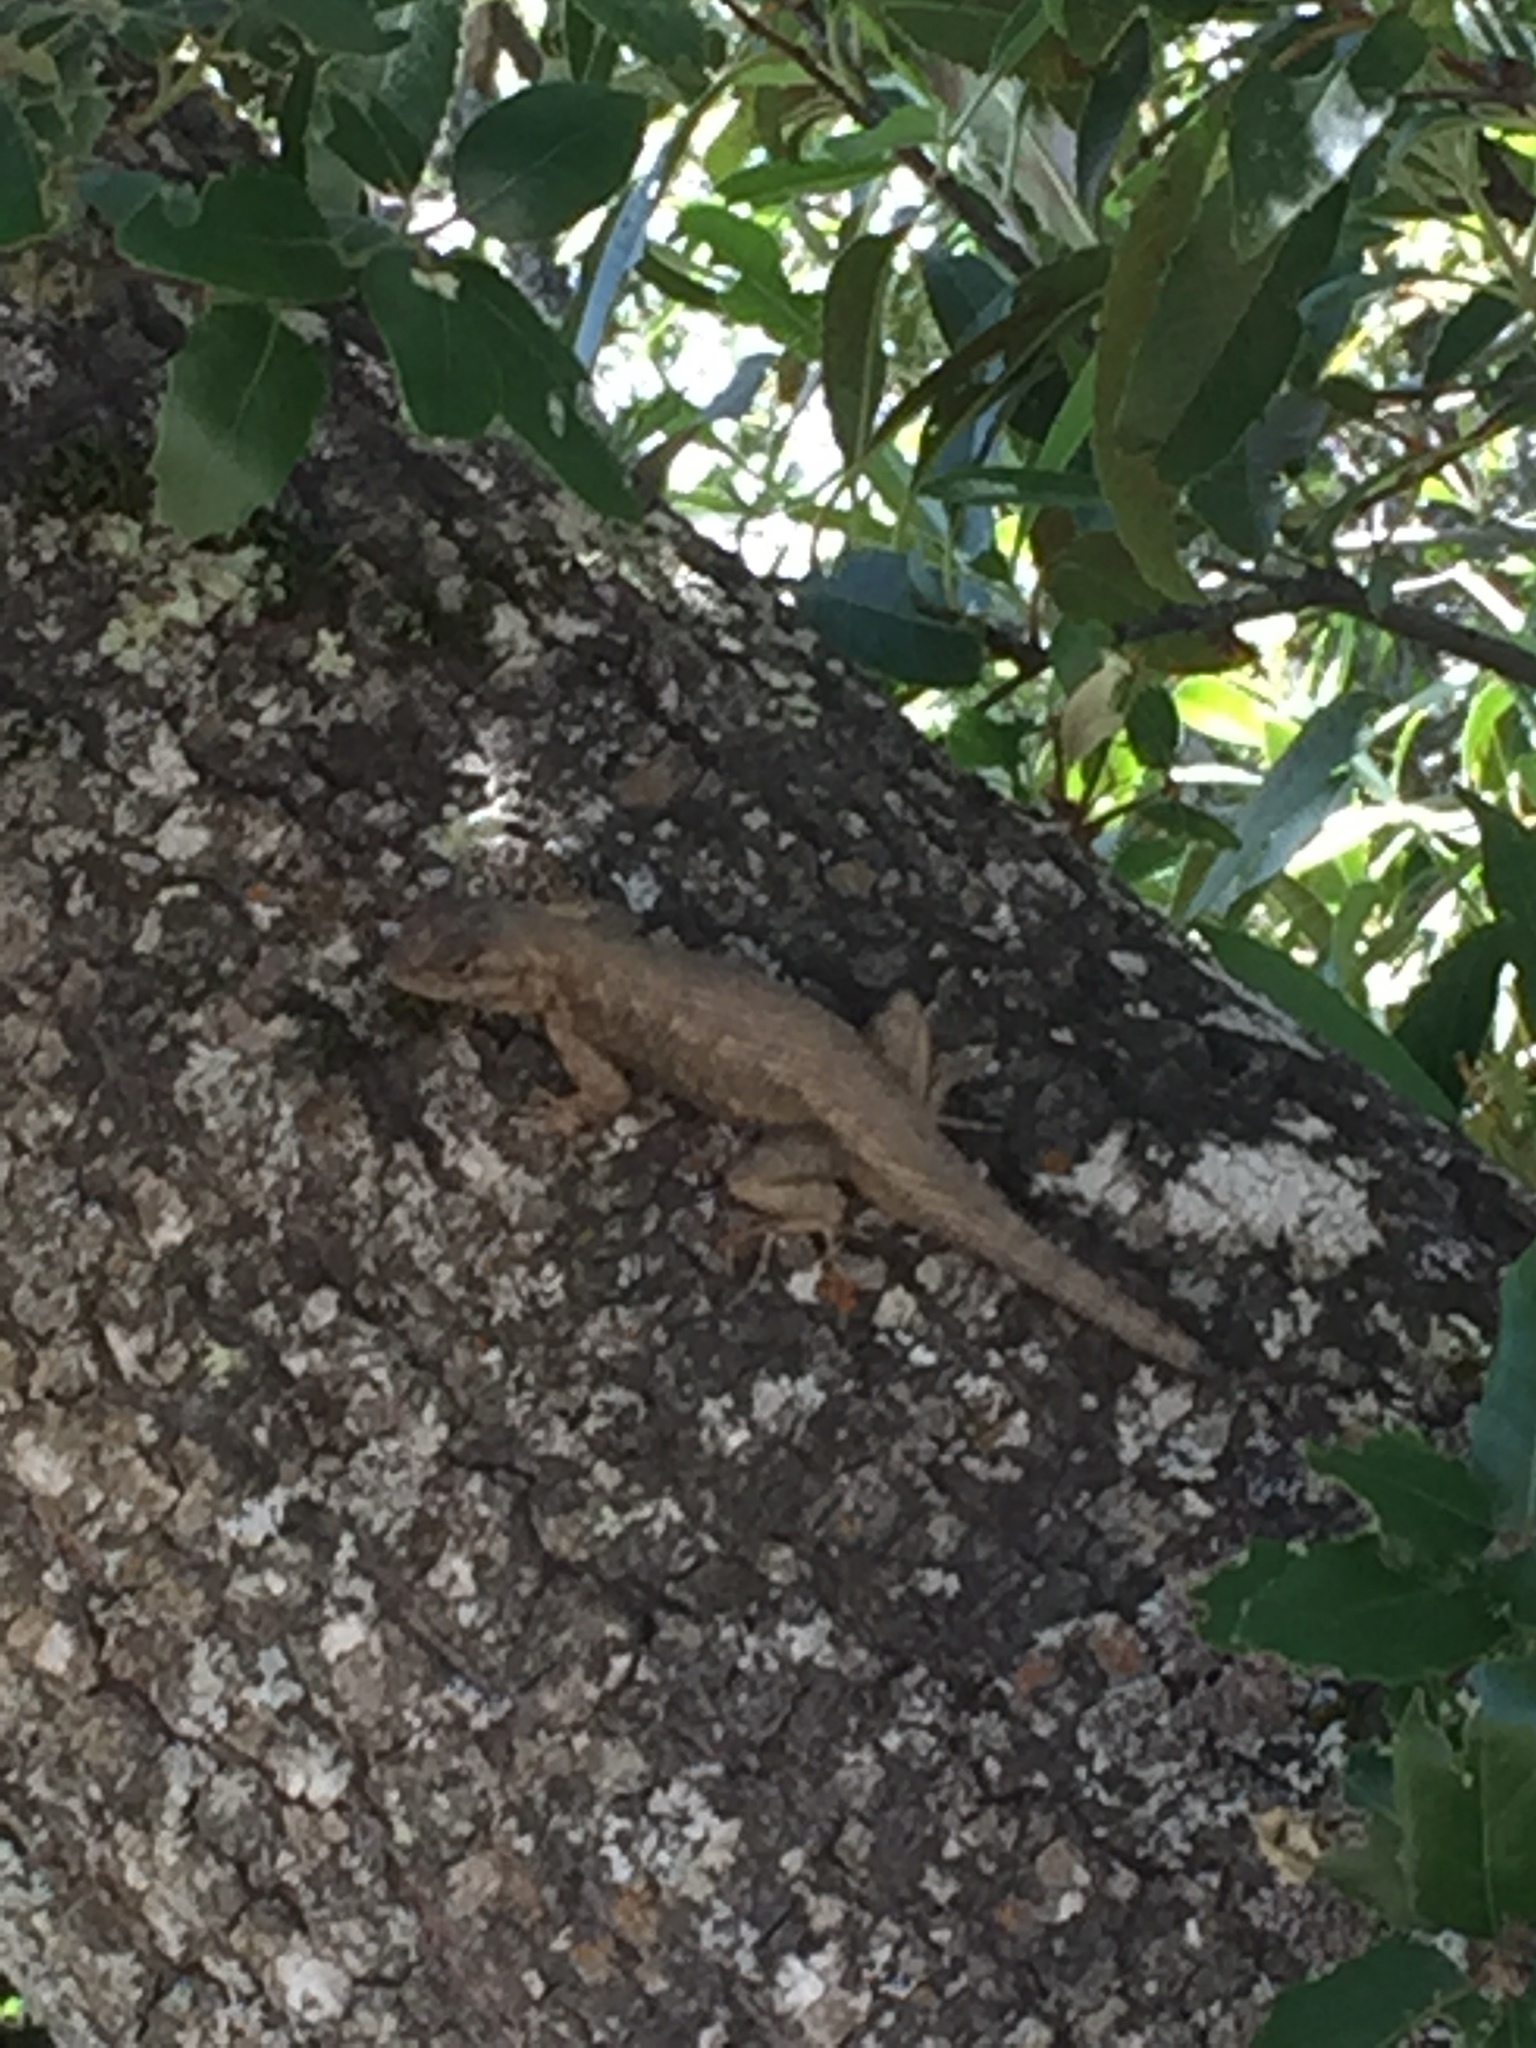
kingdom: Animalia
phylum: Chordata
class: Squamata
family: Phrynosomatidae
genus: Sceloporus
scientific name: Sceloporus occidentalis
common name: Western fence lizard
